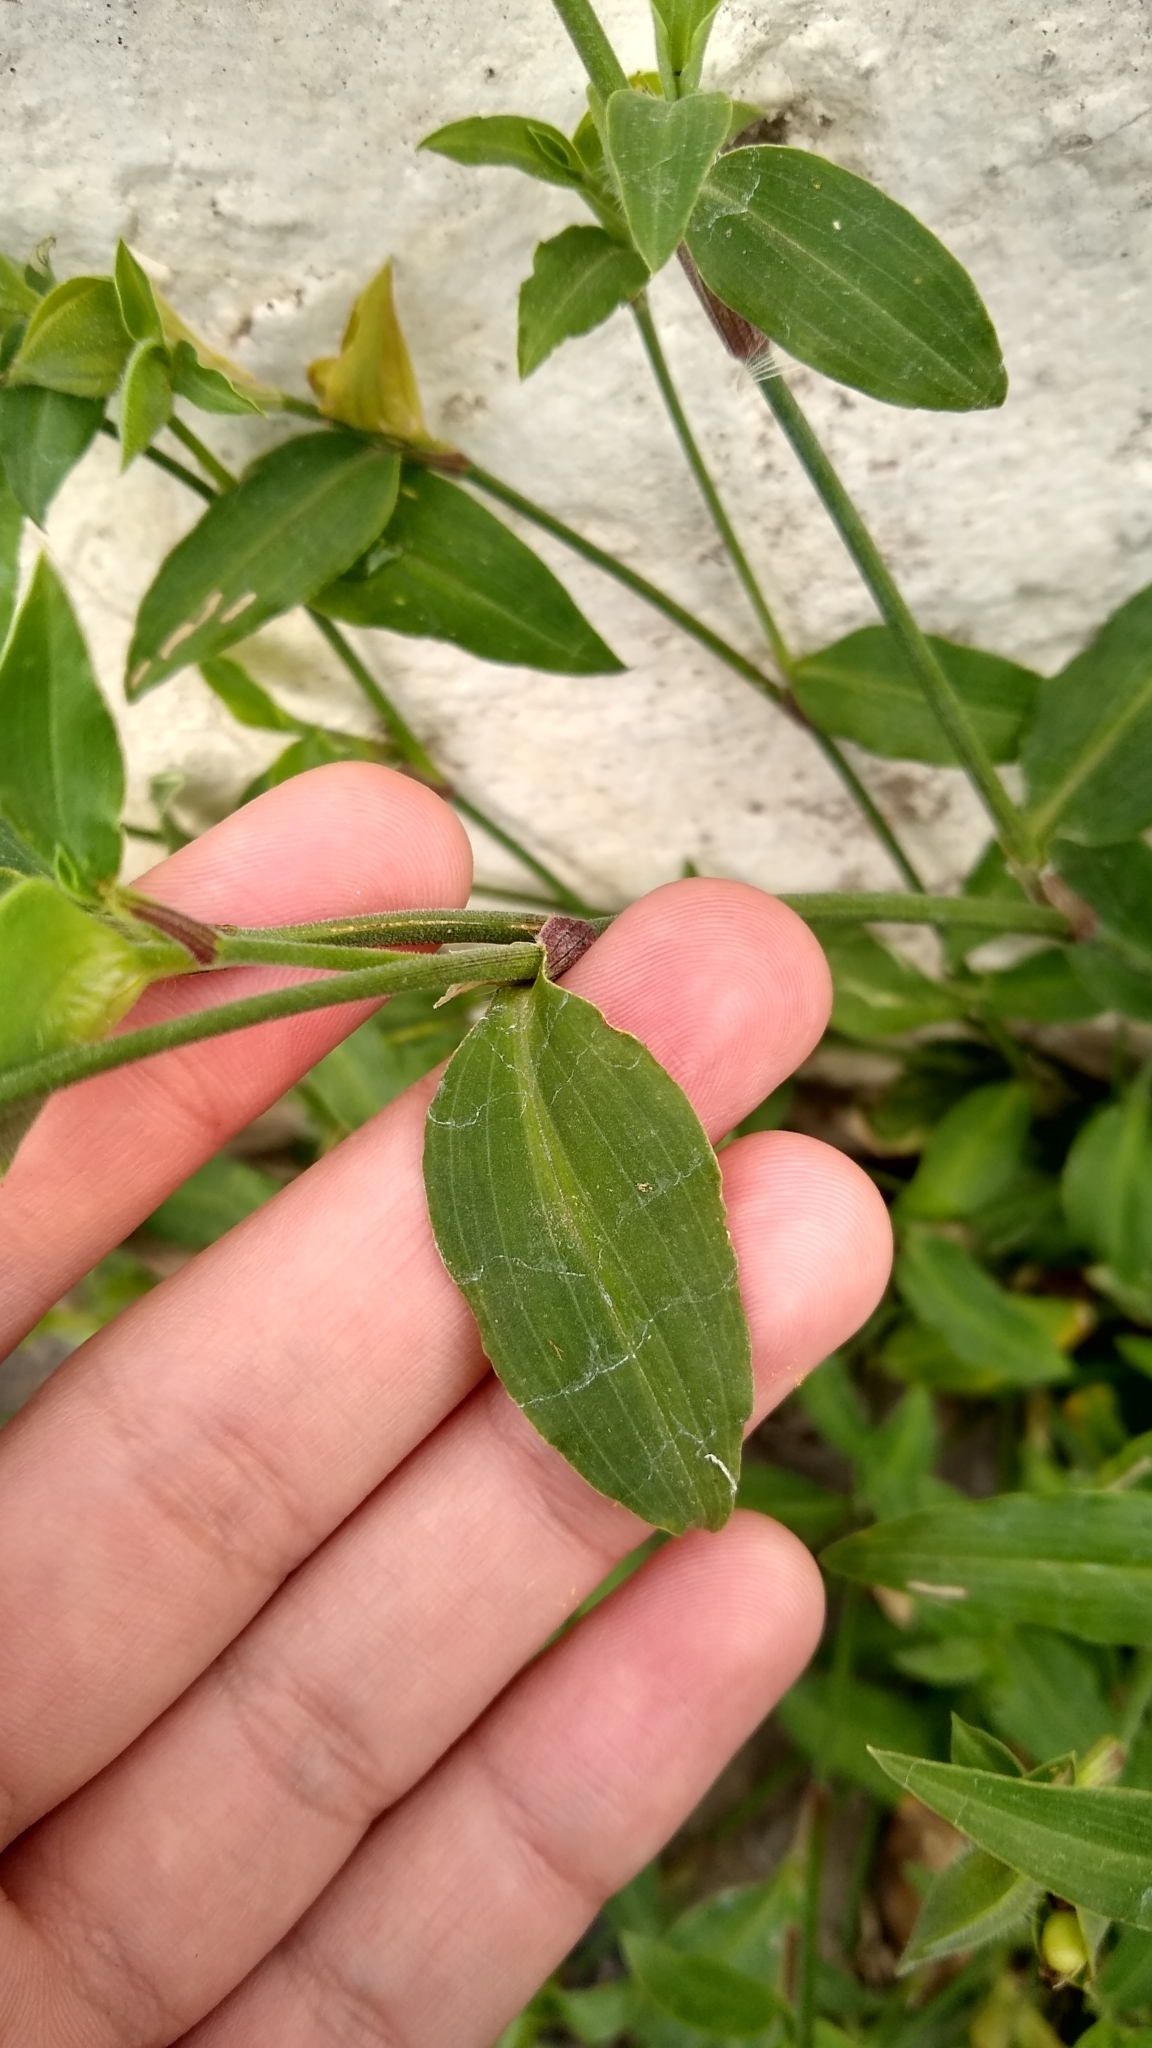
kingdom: Plantae
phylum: Tracheophyta
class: Liliopsida
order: Commelinales
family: Commelinaceae
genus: Commelina
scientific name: Commelina erecta
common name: Blousel blommetjie
